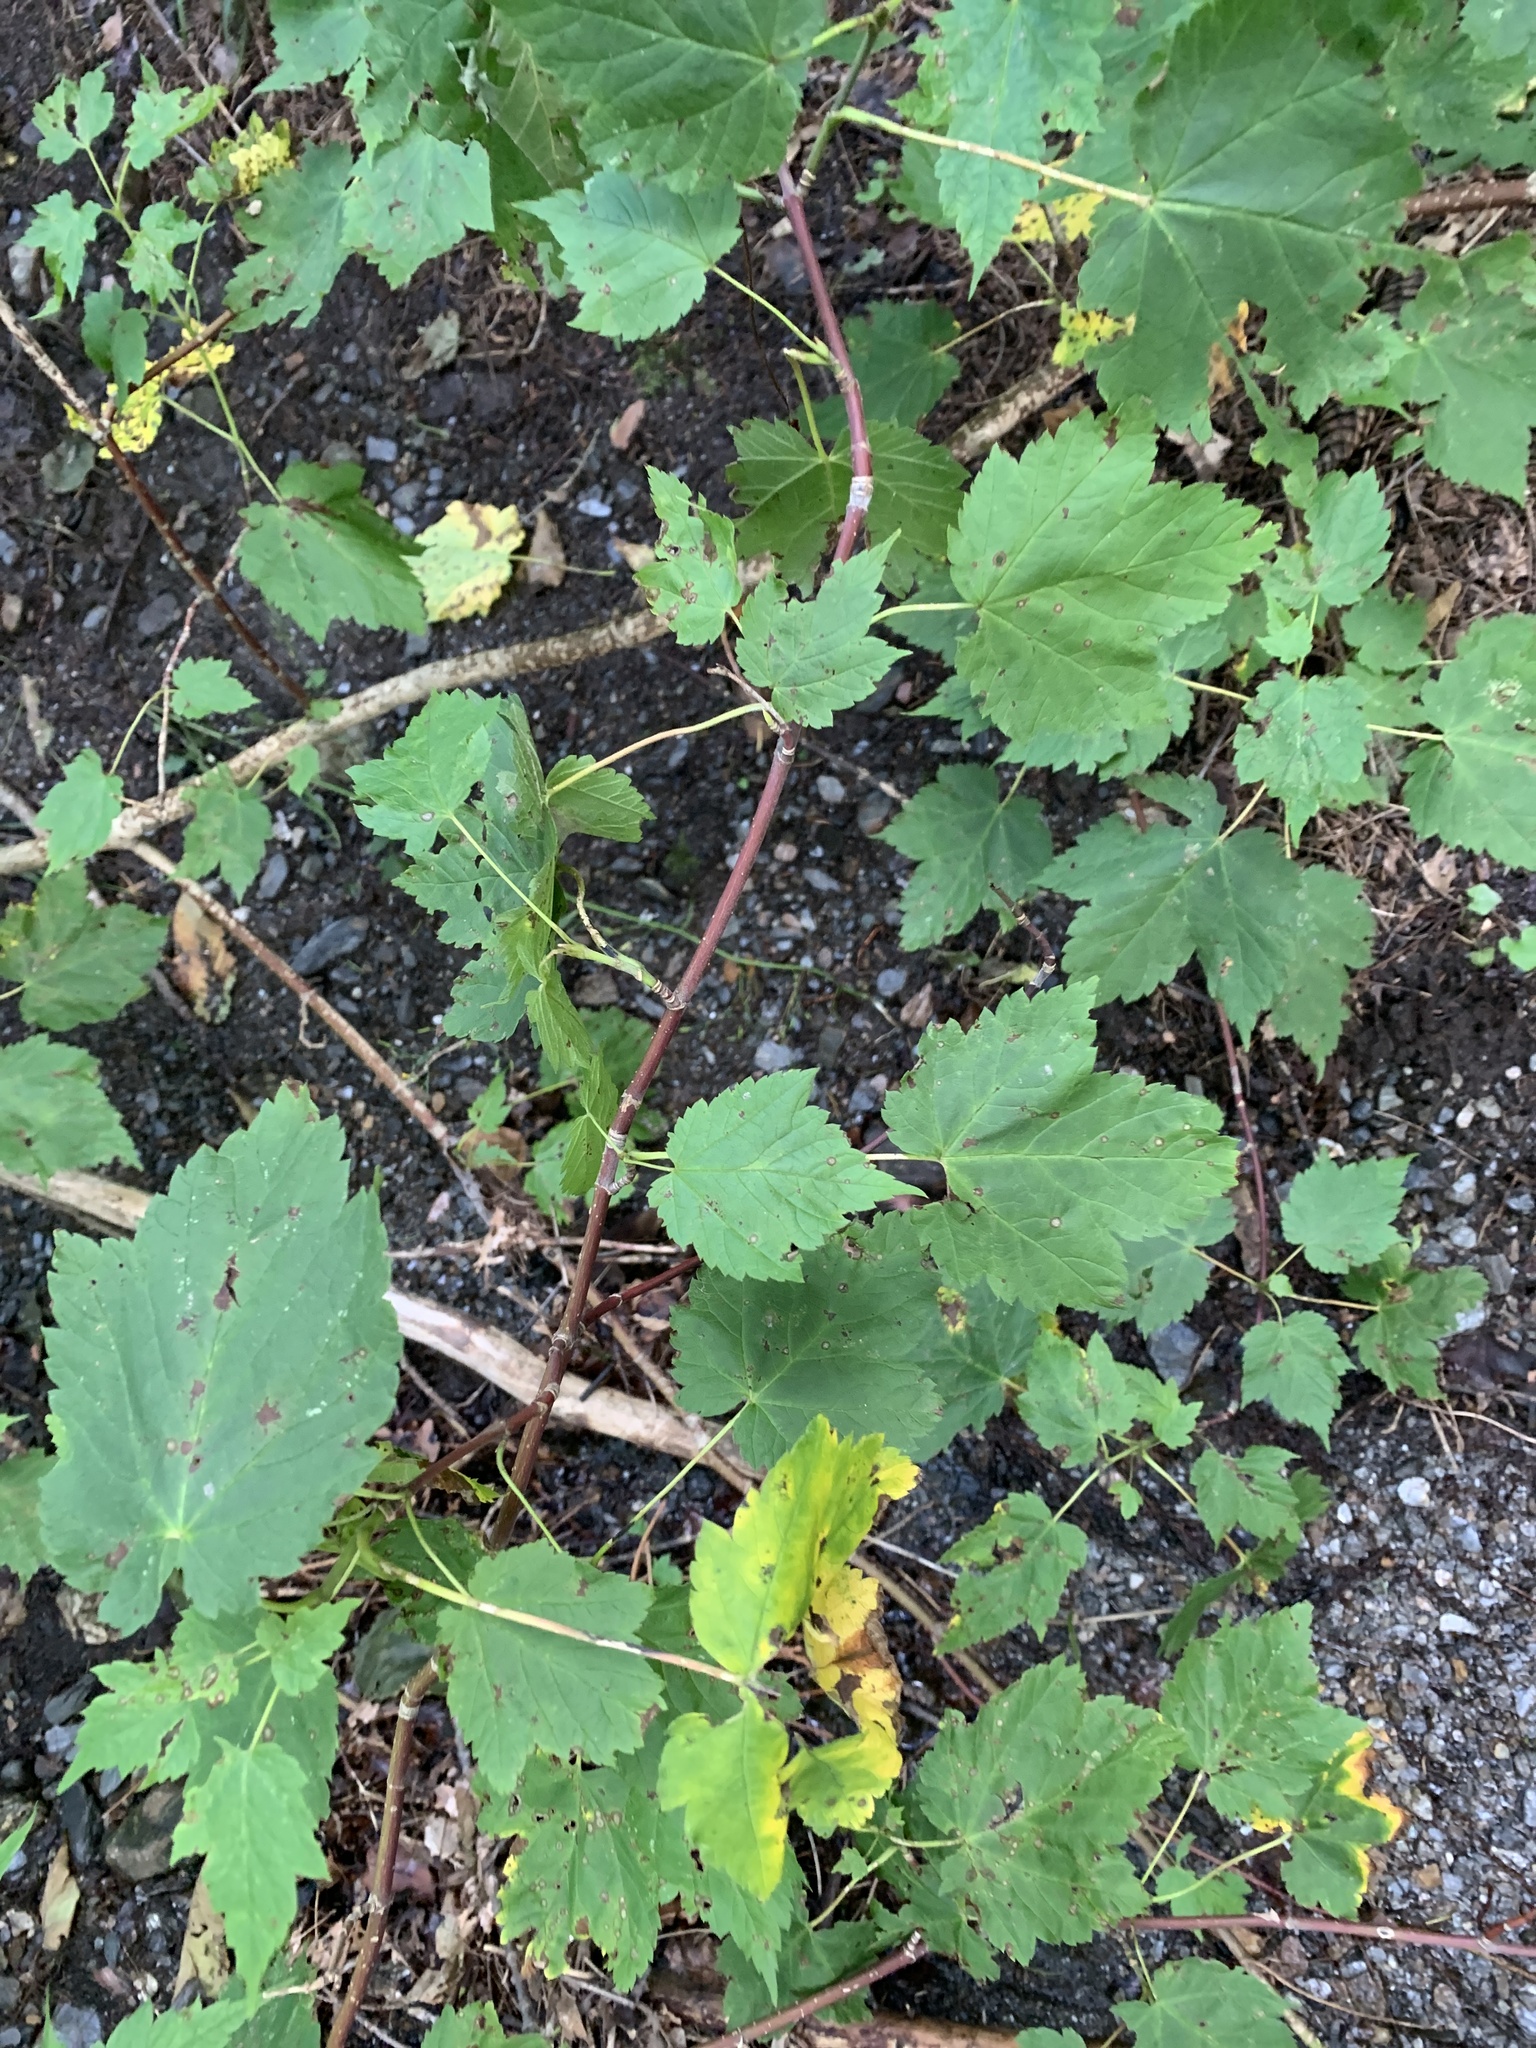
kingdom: Plantae
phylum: Tracheophyta
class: Magnoliopsida
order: Sapindales
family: Sapindaceae
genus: Acer
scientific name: Acer spicatum
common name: Mountain maple
